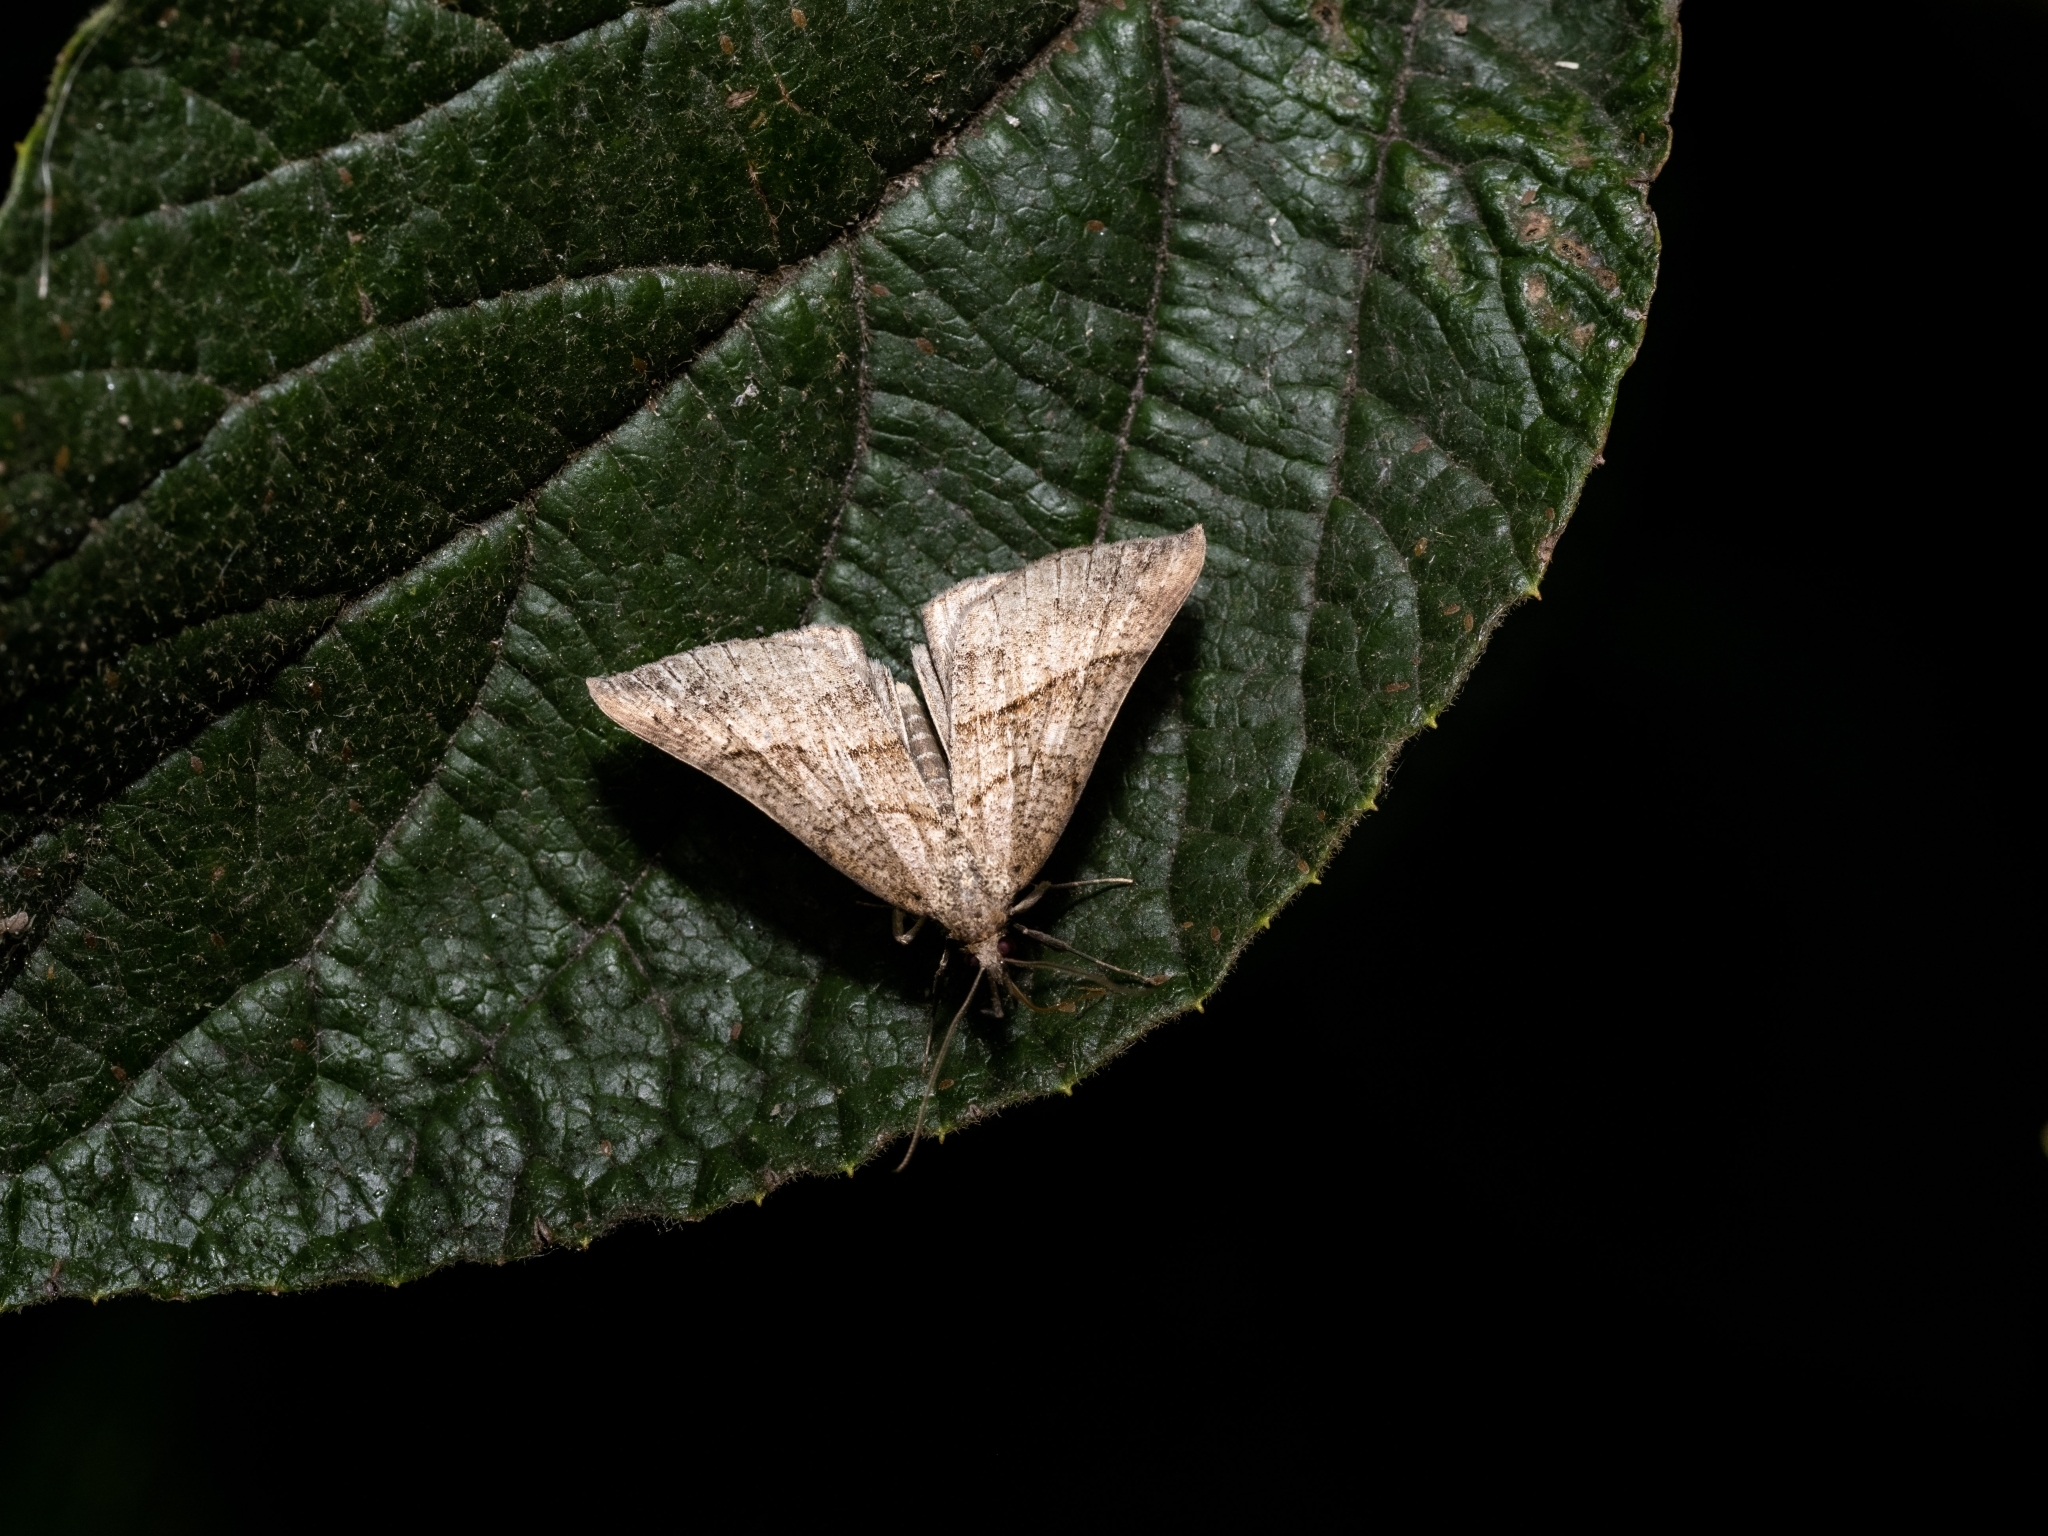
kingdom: Animalia
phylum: Arthropoda
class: Insecta
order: Lepidoptera
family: Erebidae
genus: Hypena
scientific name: Hypena proboscidalis
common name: Snout
